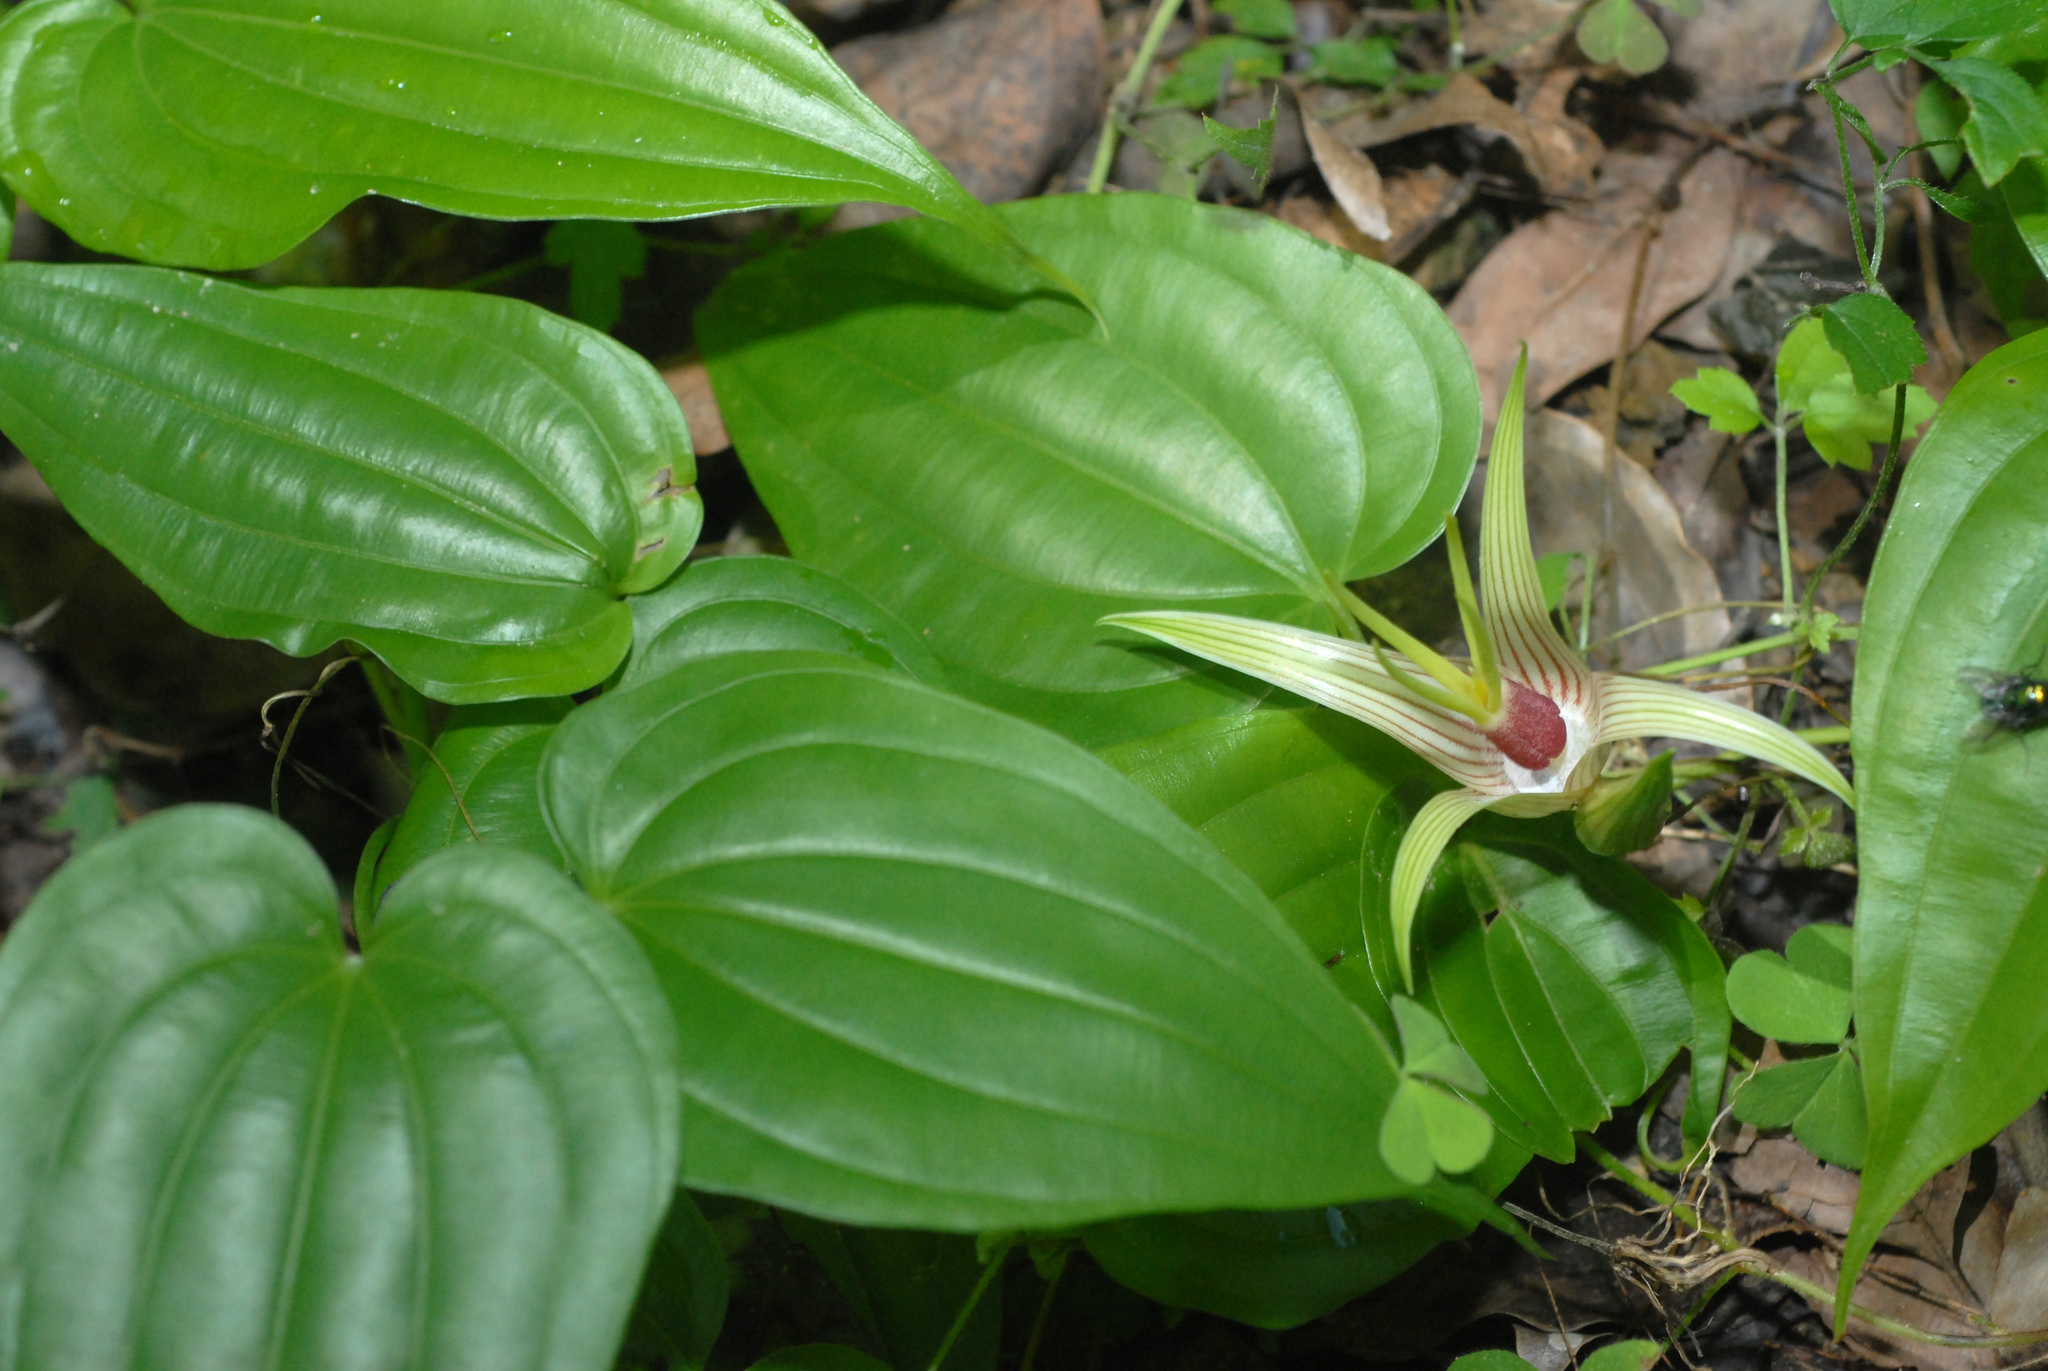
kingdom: Plantae
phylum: Tracheophyta
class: Liliopsida
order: Pandanales
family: Stemonaceae
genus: Stemona
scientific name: Stemona tuberosa
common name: Stemona
